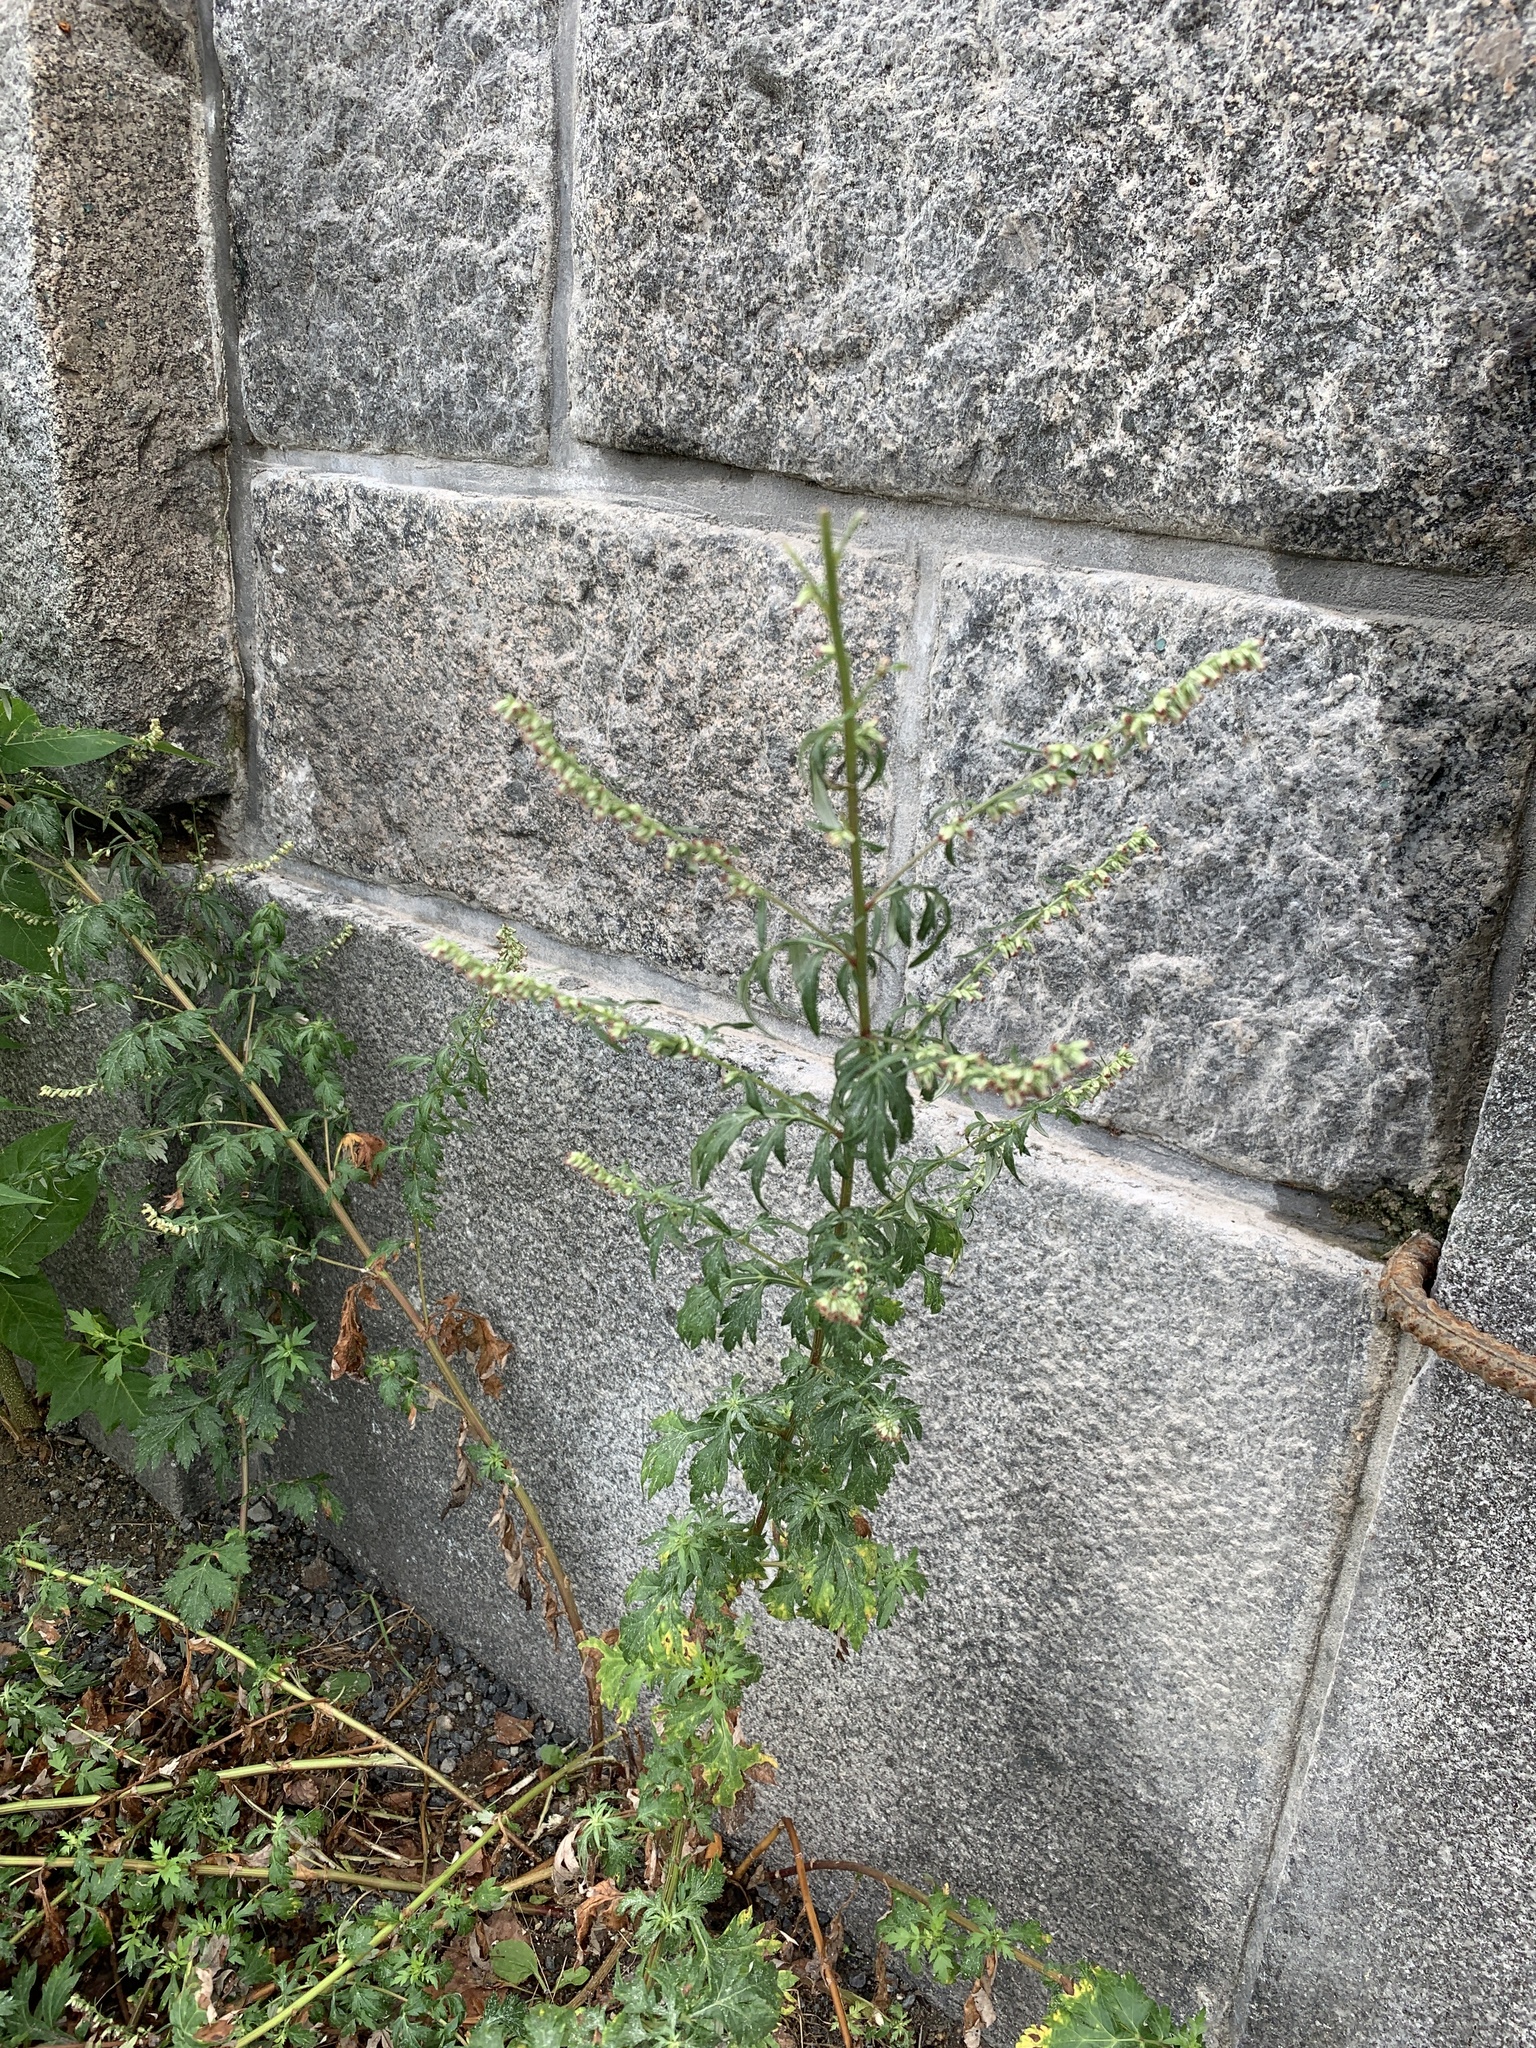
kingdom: Plantae
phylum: Tracheophyta
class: Magnoliopsida
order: Asterales
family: Asteraceae
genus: Artemisia
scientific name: Artemisia vulgaris
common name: Mugwort
